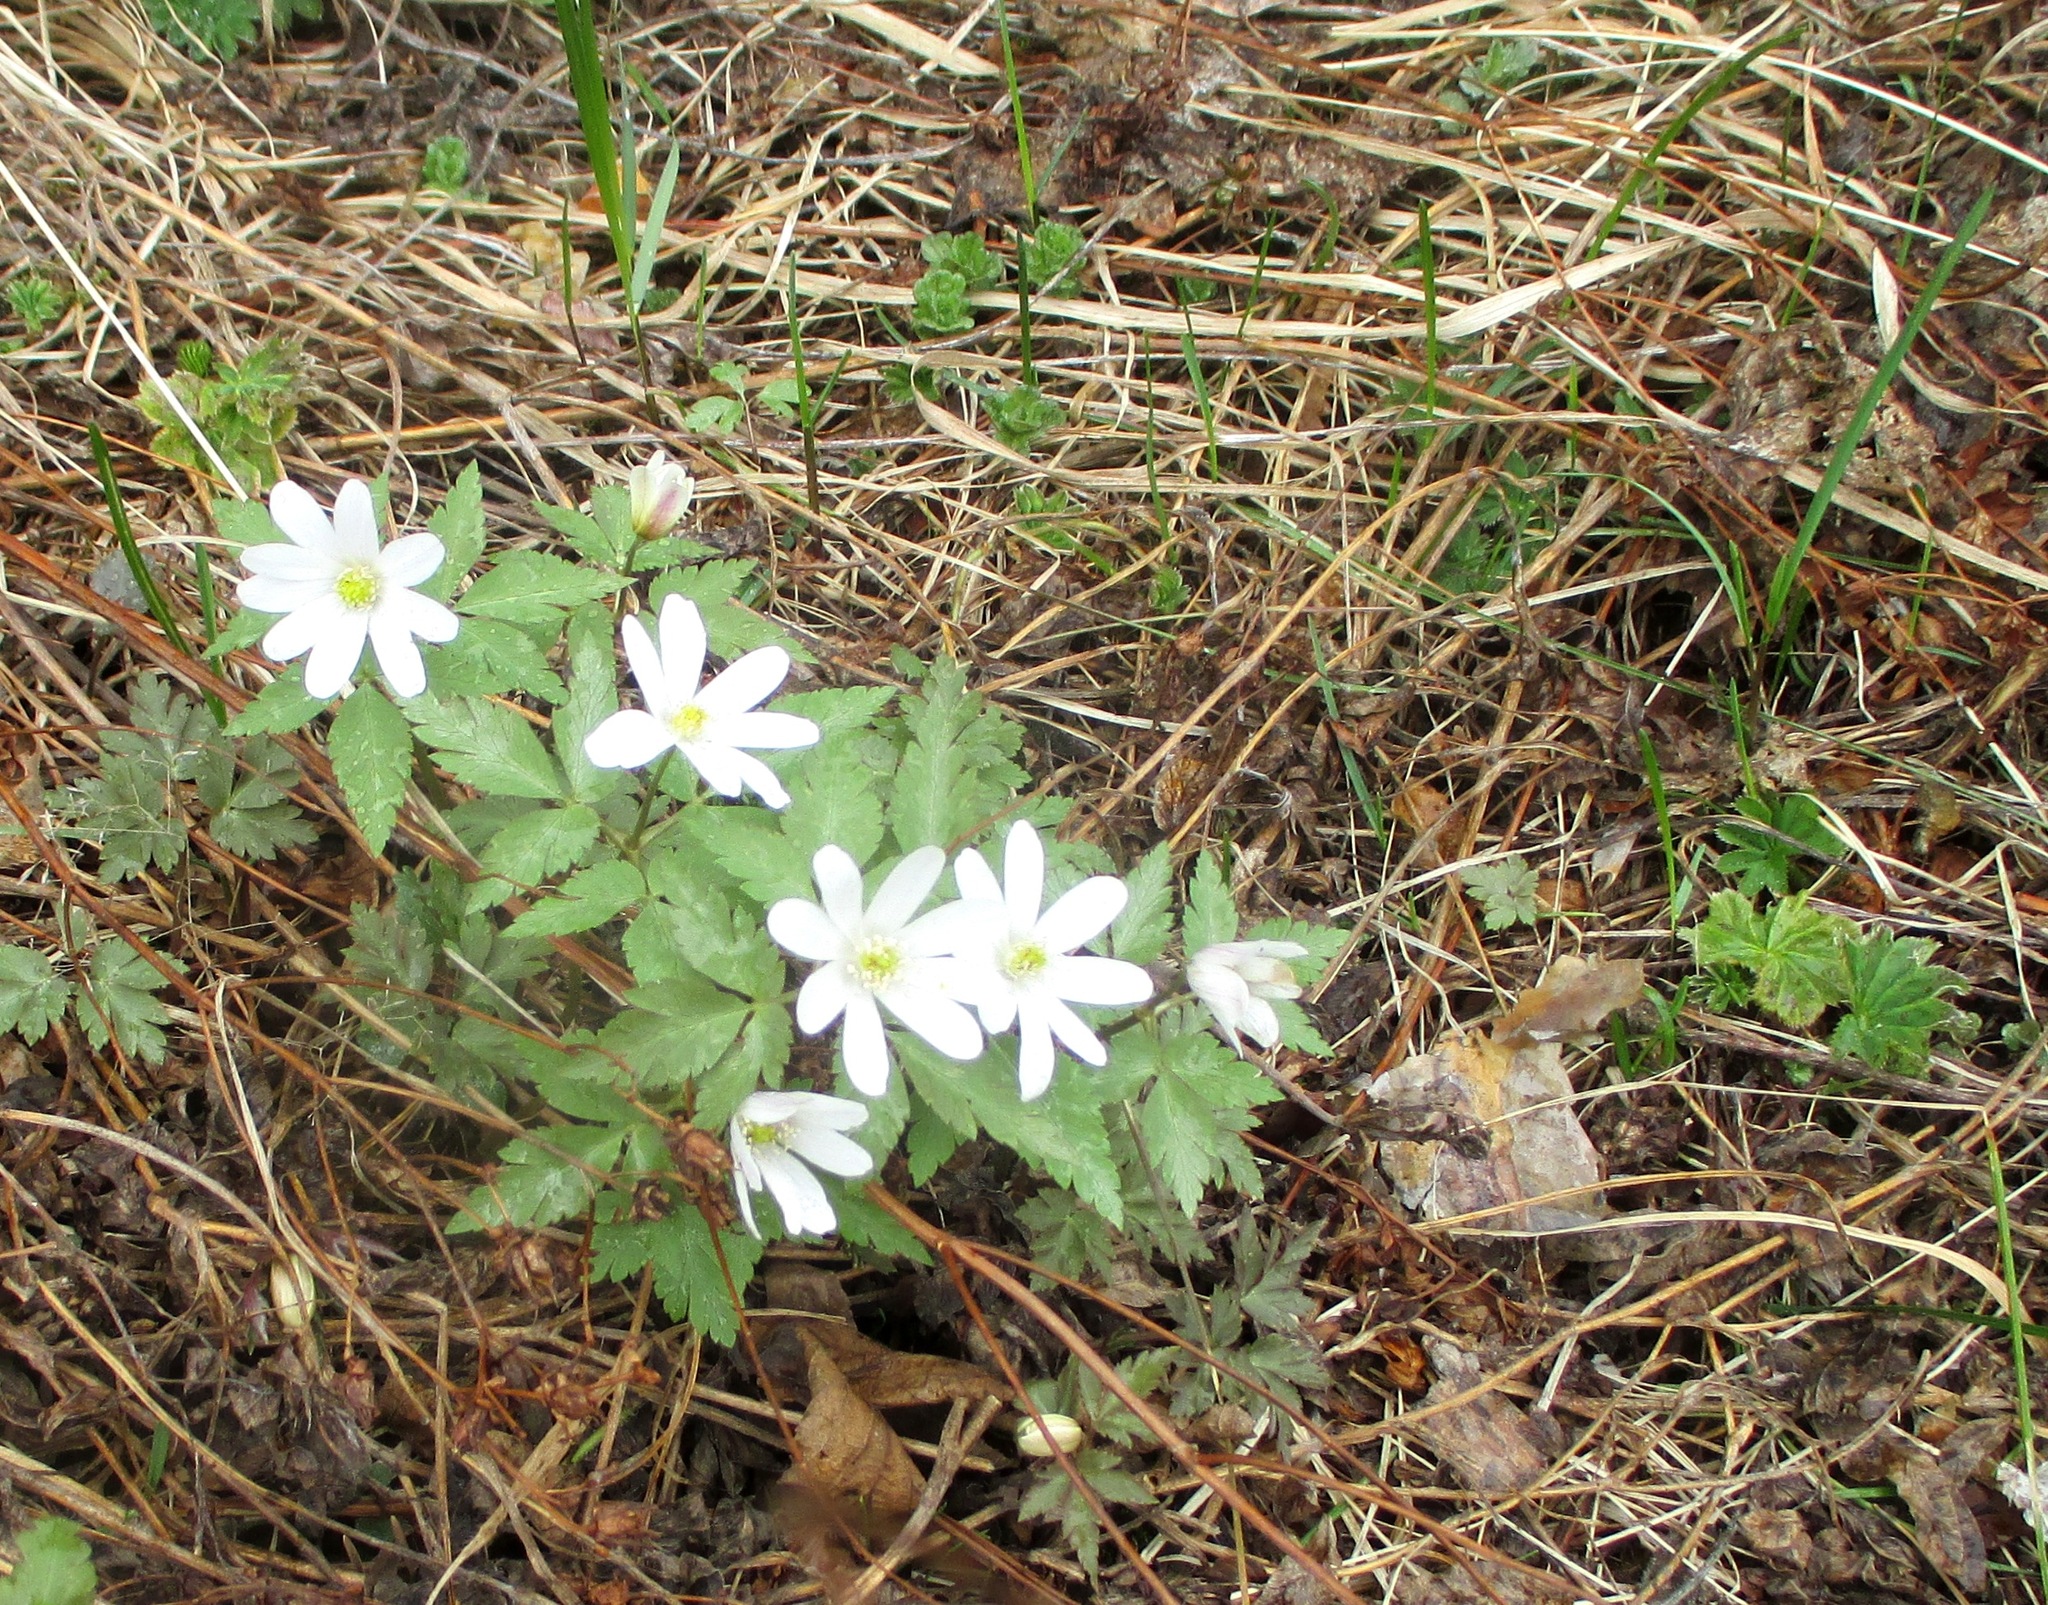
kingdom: Plantae
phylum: Tracheophyta
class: Magnoliopsida
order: Ranunculales
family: Ranunculaceae
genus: Anemone
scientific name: Anemone altaica
